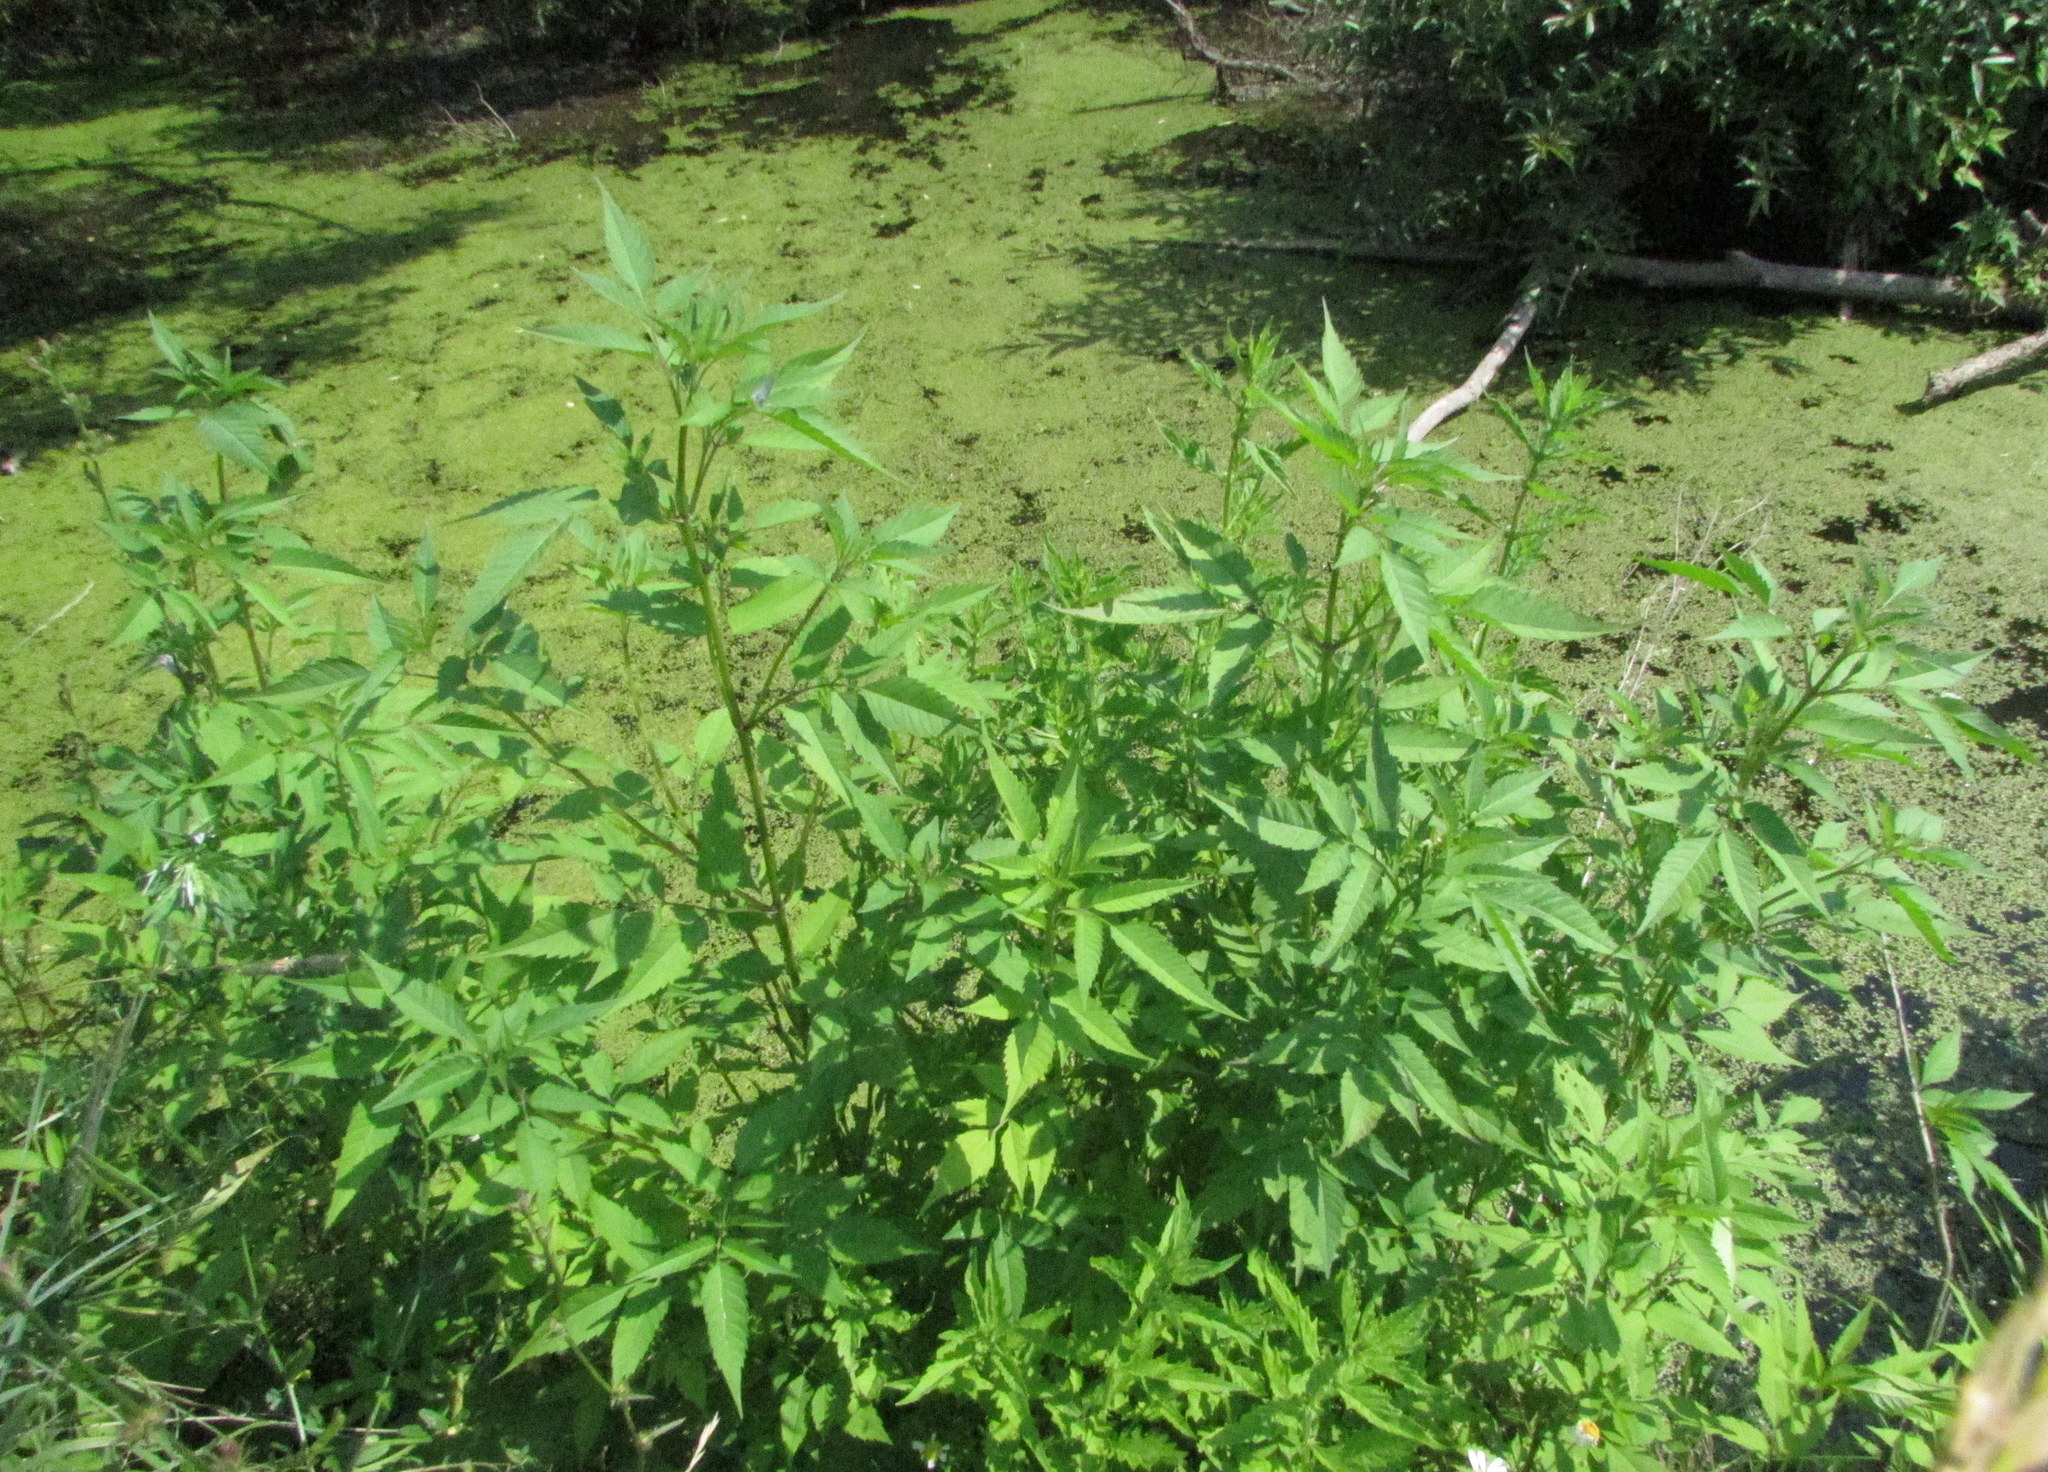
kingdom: Plantae
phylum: Tracheophyta
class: Magnoliopsida
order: Asterales
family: Asteraceae
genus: Bidens
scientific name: Bidens frondosa
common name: Beggarticks
